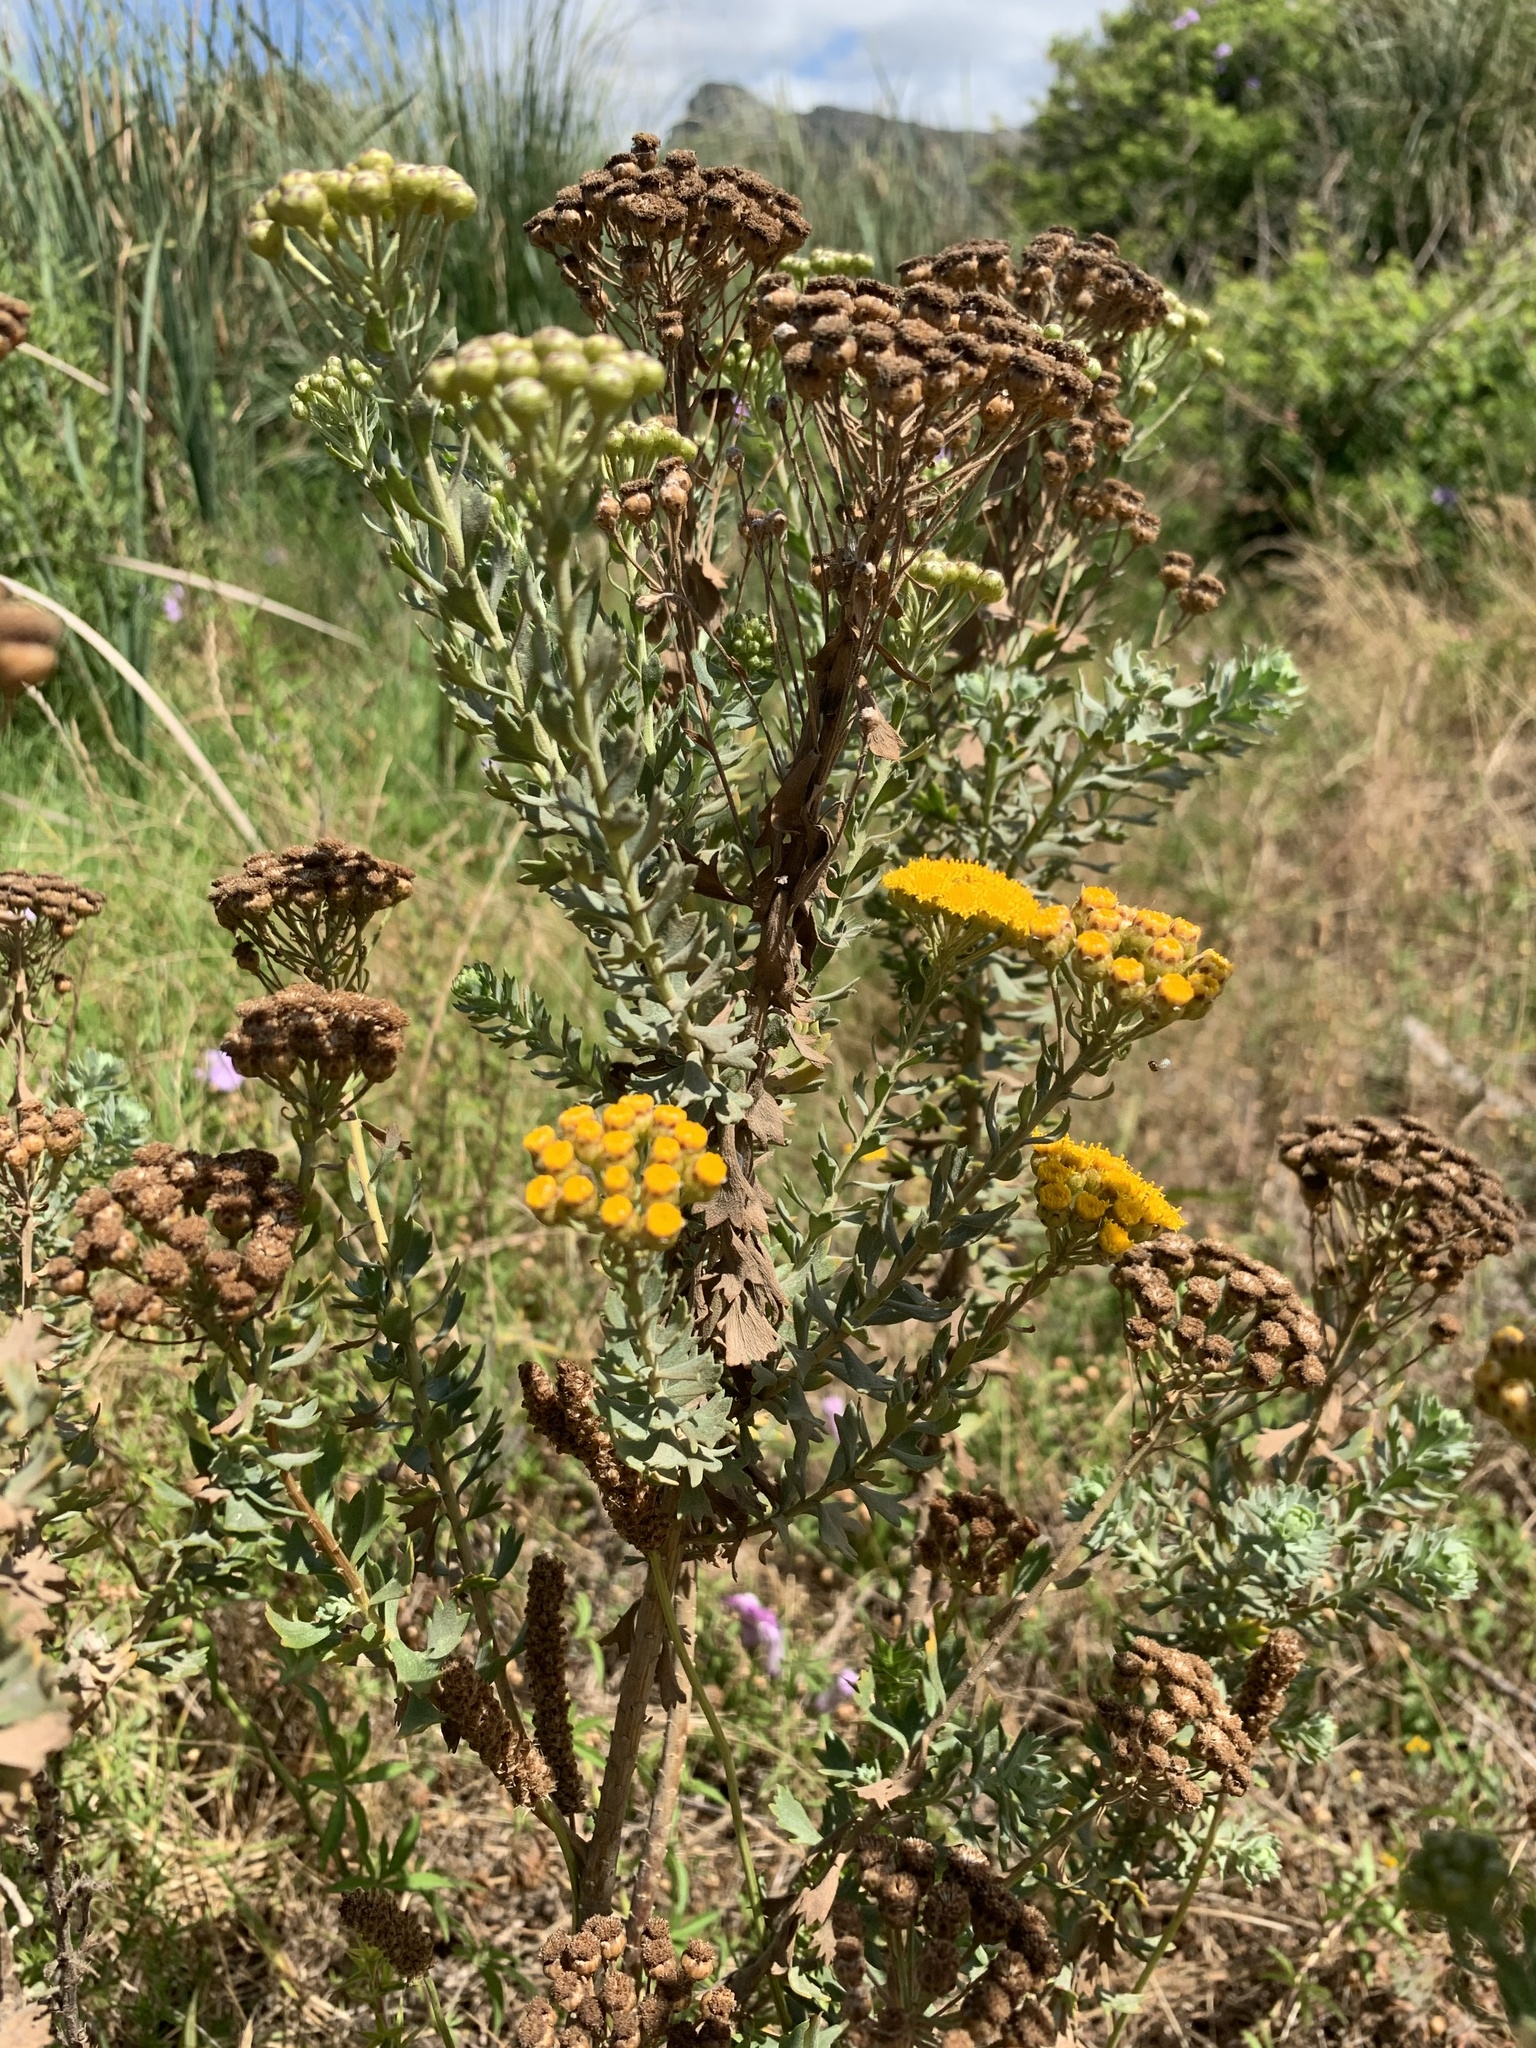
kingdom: Plantae
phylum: Tracheophyta
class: Magnoliopsida
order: Asterales
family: Asteraceae
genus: Athanasia
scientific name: Athanasia trifurcata
